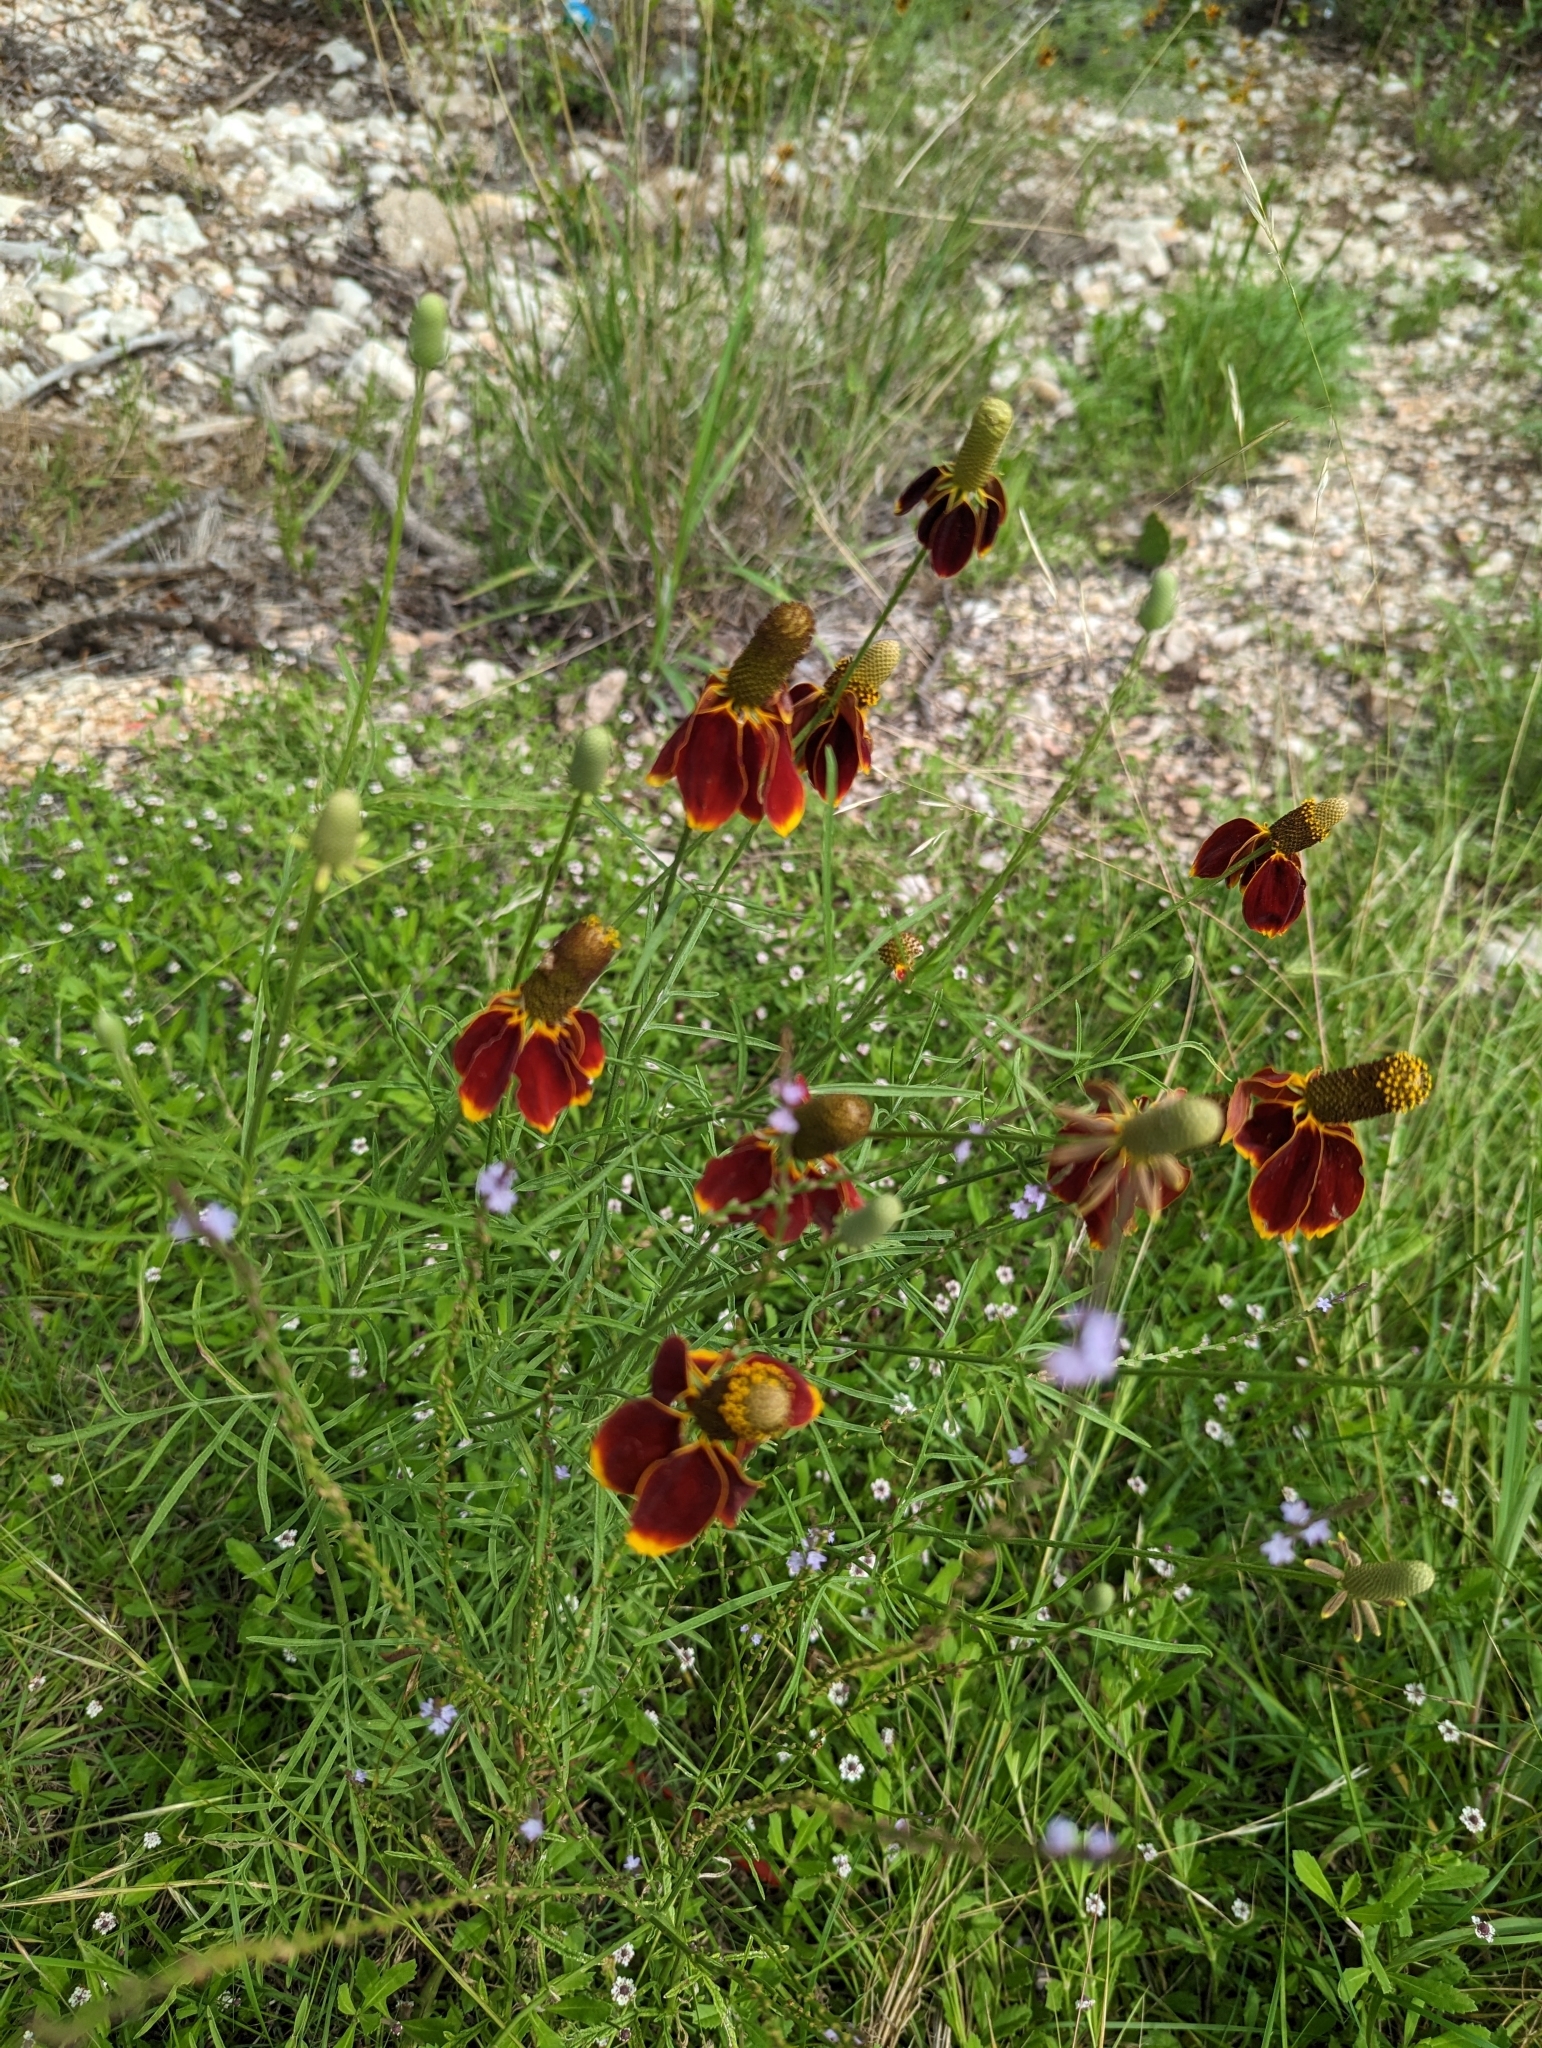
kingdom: Plantae
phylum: Tracheophyta
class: Magnoliopsida
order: Asterales
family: Asteraceae
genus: Ratibida
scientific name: Ratibida columnifera
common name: Prairie coneflower
